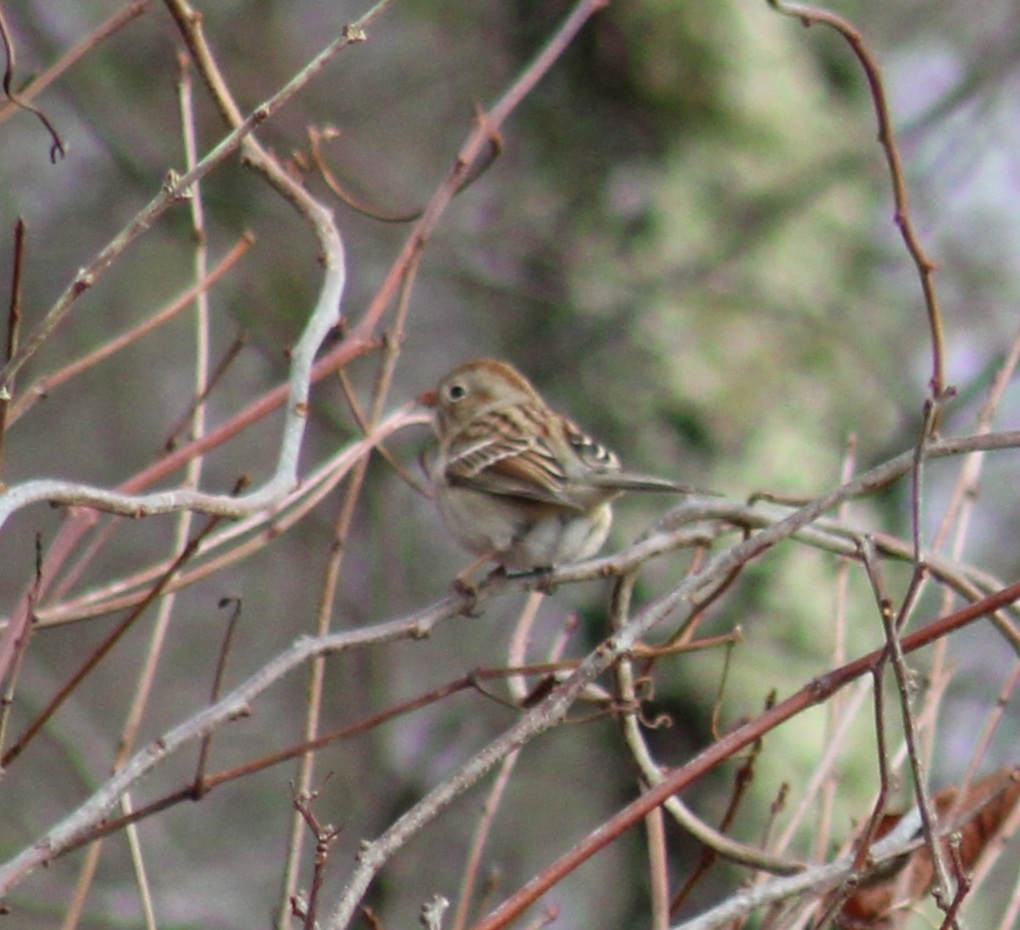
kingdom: Animalia
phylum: Chordata
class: Aves
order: Passeriformes
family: Passerellidae
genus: Spizella
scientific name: Spizella pusilla
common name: Field sparrow
